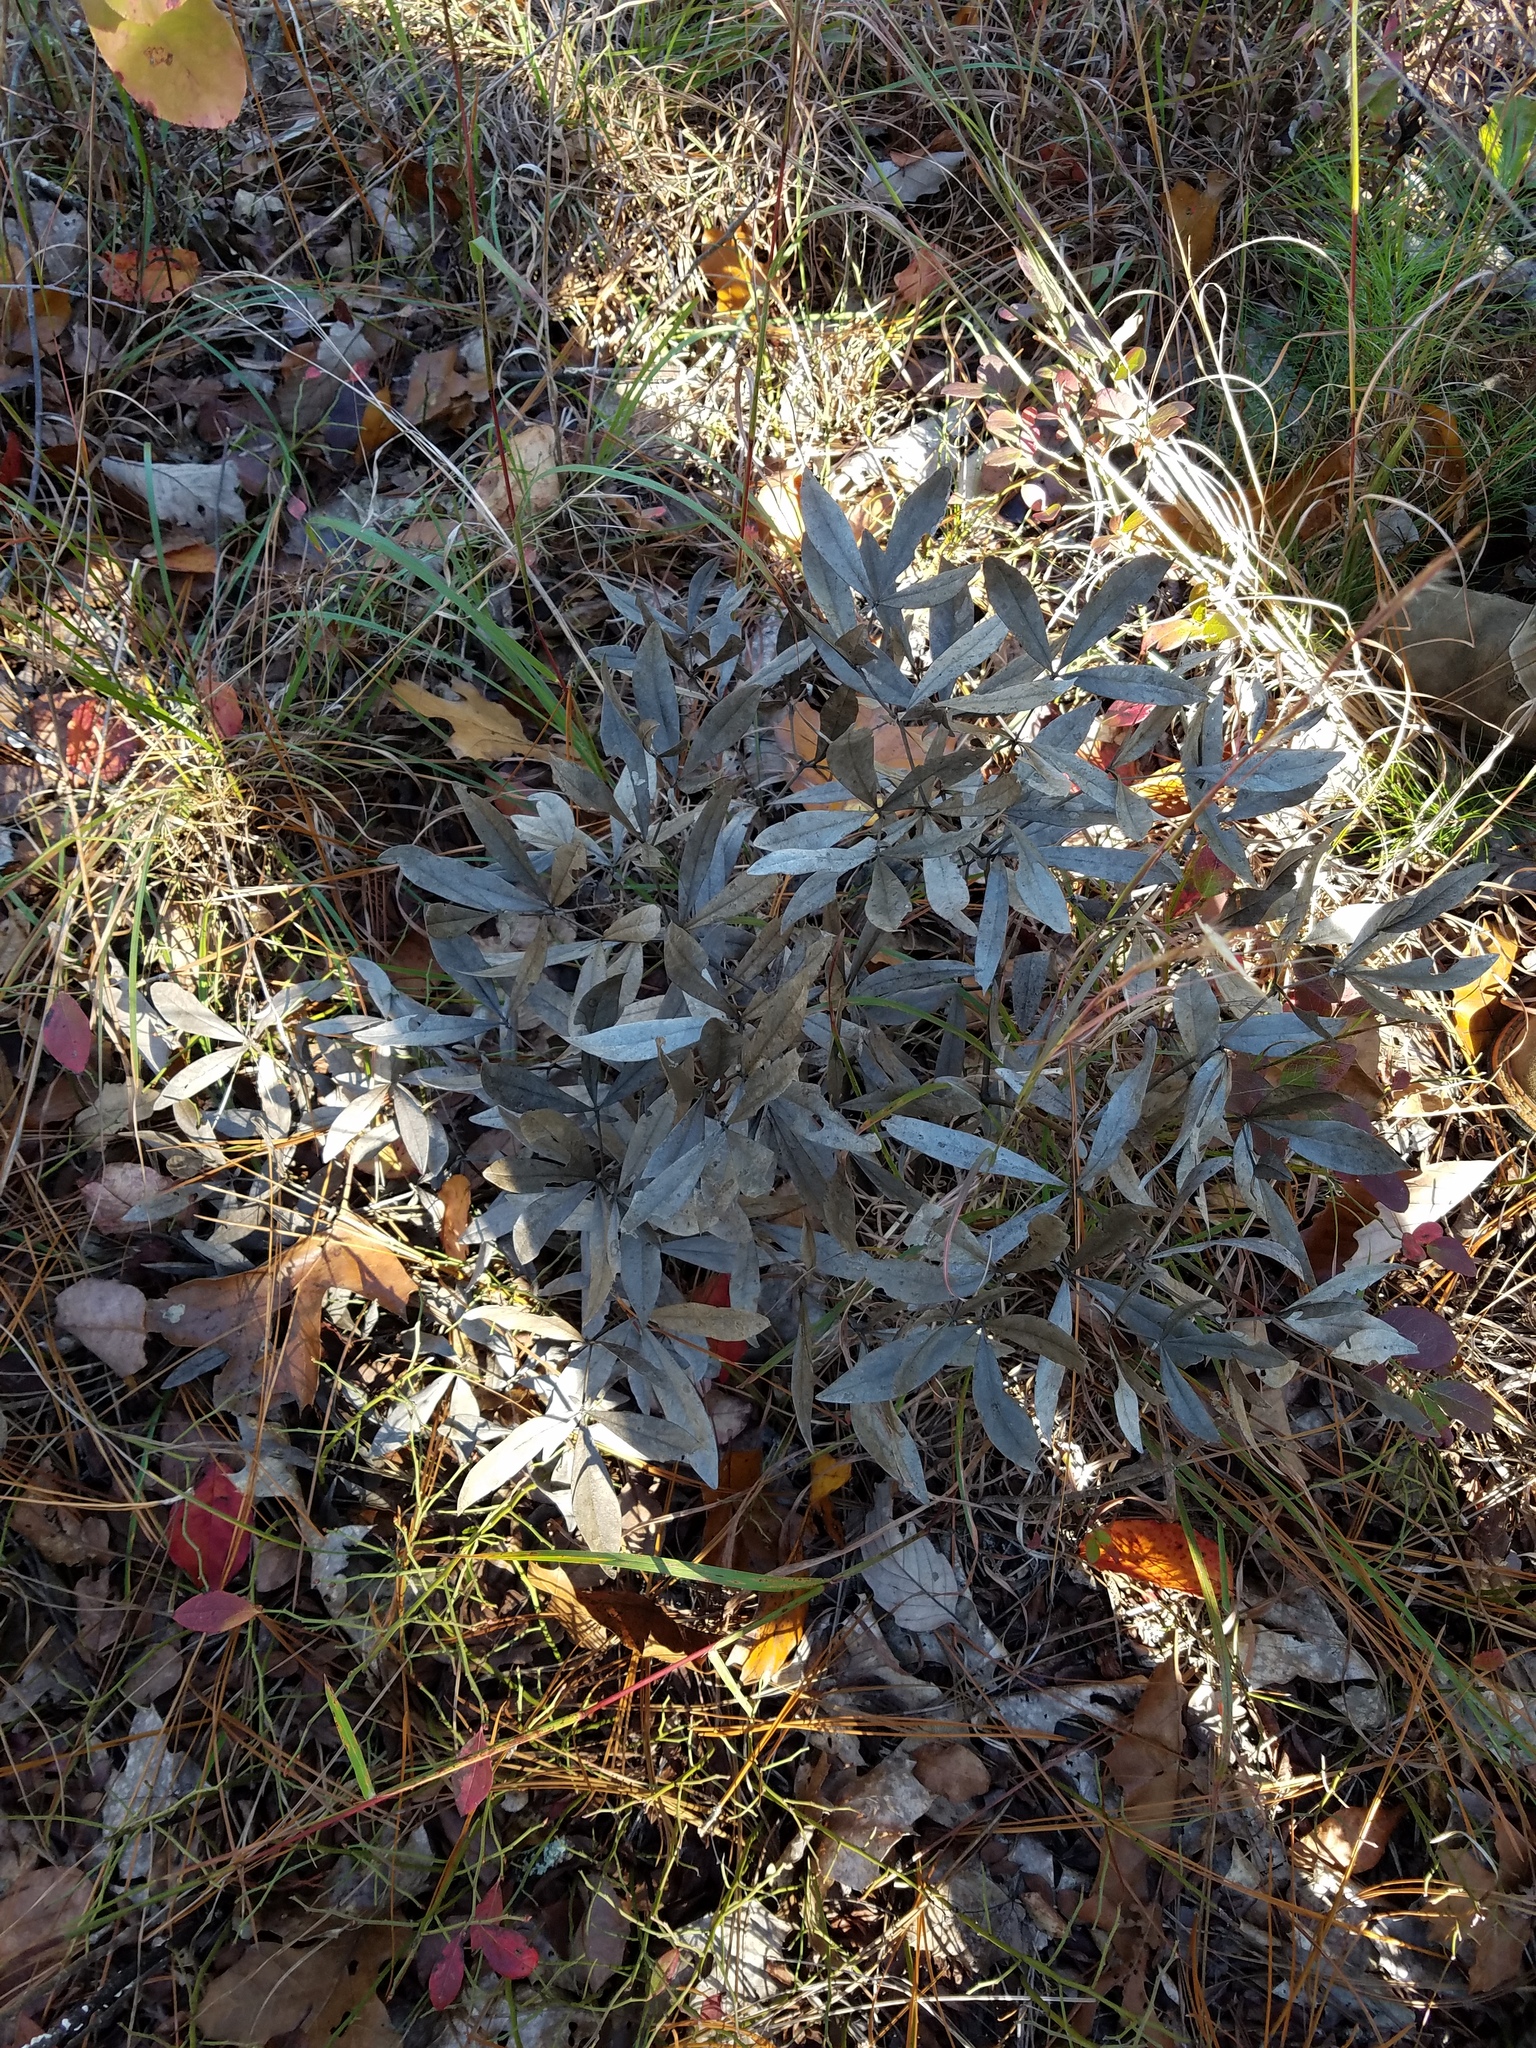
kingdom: Plantae
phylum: Tracheophyta
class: Magnoliopsida
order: Fabales
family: Fabaceae
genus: Baptisia
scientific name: Baptisia bracteata
